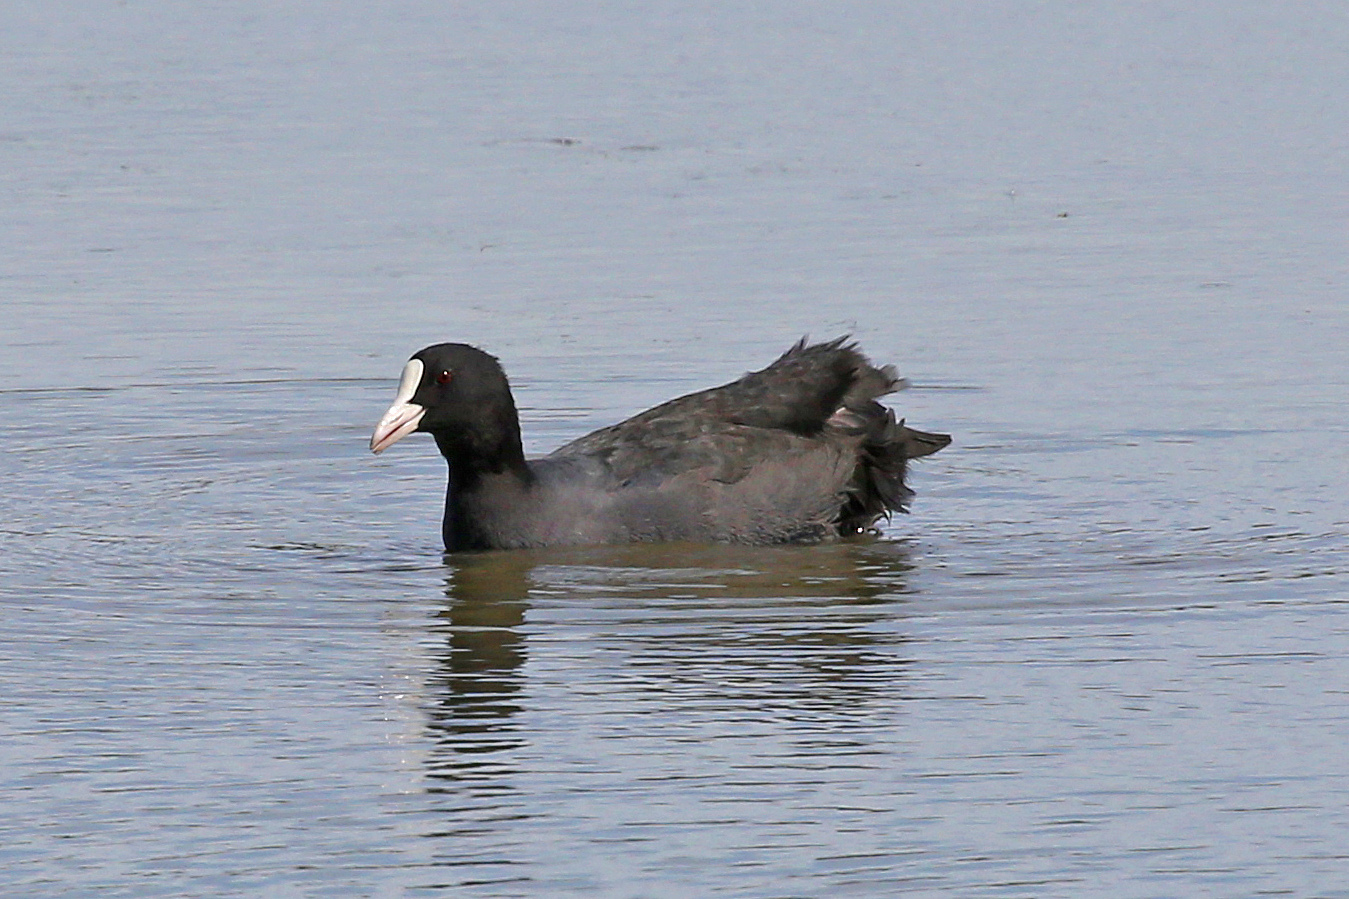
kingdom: Animalia
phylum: Chordata
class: Aves
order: Gruiformes
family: Rallidae
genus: Fulica
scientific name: Fulica atra
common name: Eurasian coot
